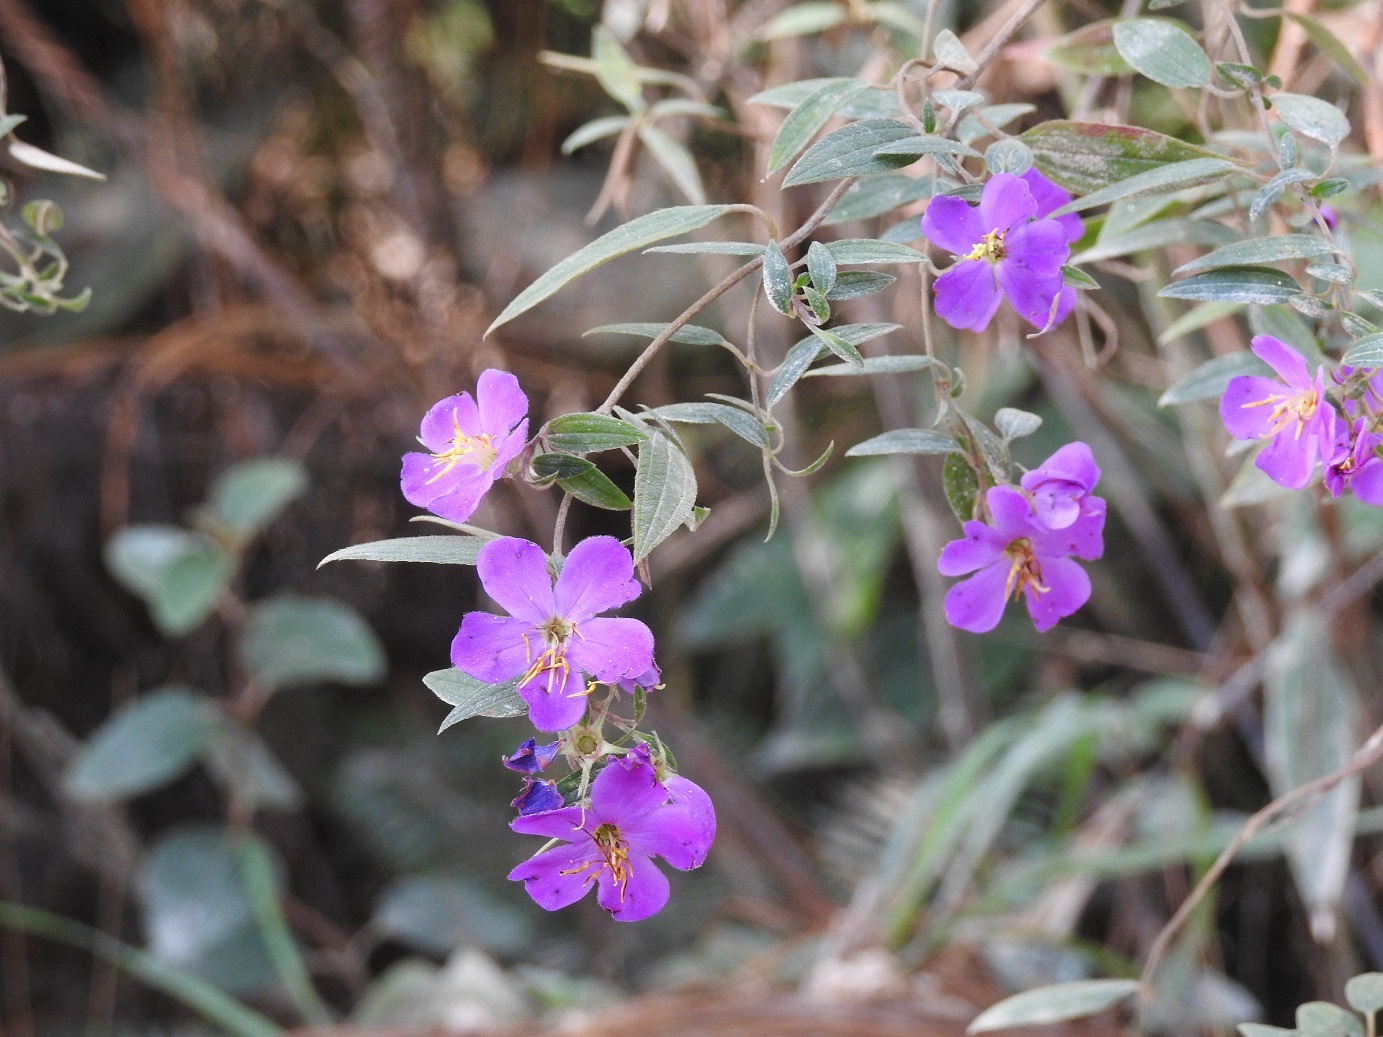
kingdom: Plantae
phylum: Tracheophyta
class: Magnoliopsida
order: Myrtales
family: Melastomataceae
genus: Chaetogastra
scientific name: Chaetogastra tortuosa
